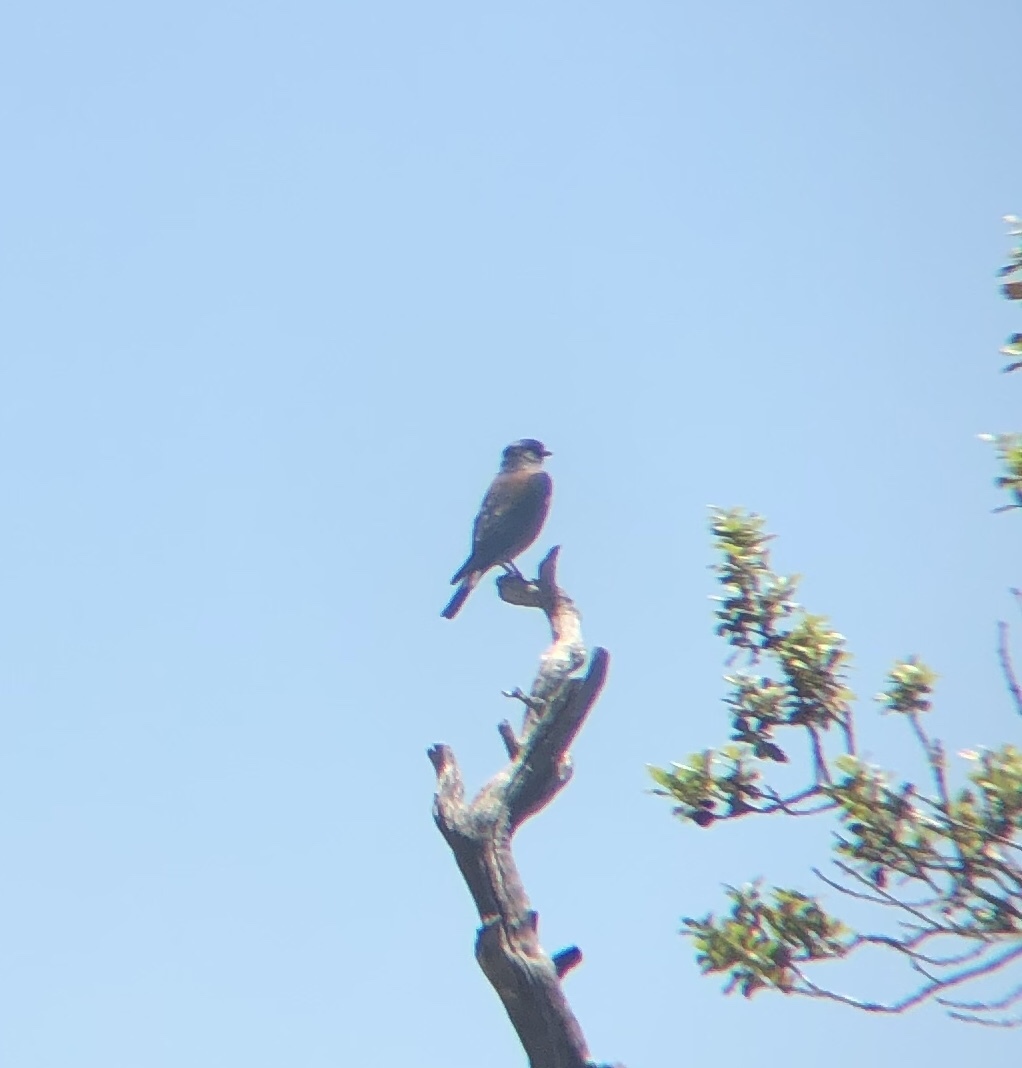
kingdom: Animalia
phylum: Chordata
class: Aves
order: Passeriformes
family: Turdidae
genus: Sialia
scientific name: Sialia mexicana
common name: Western bluebird
